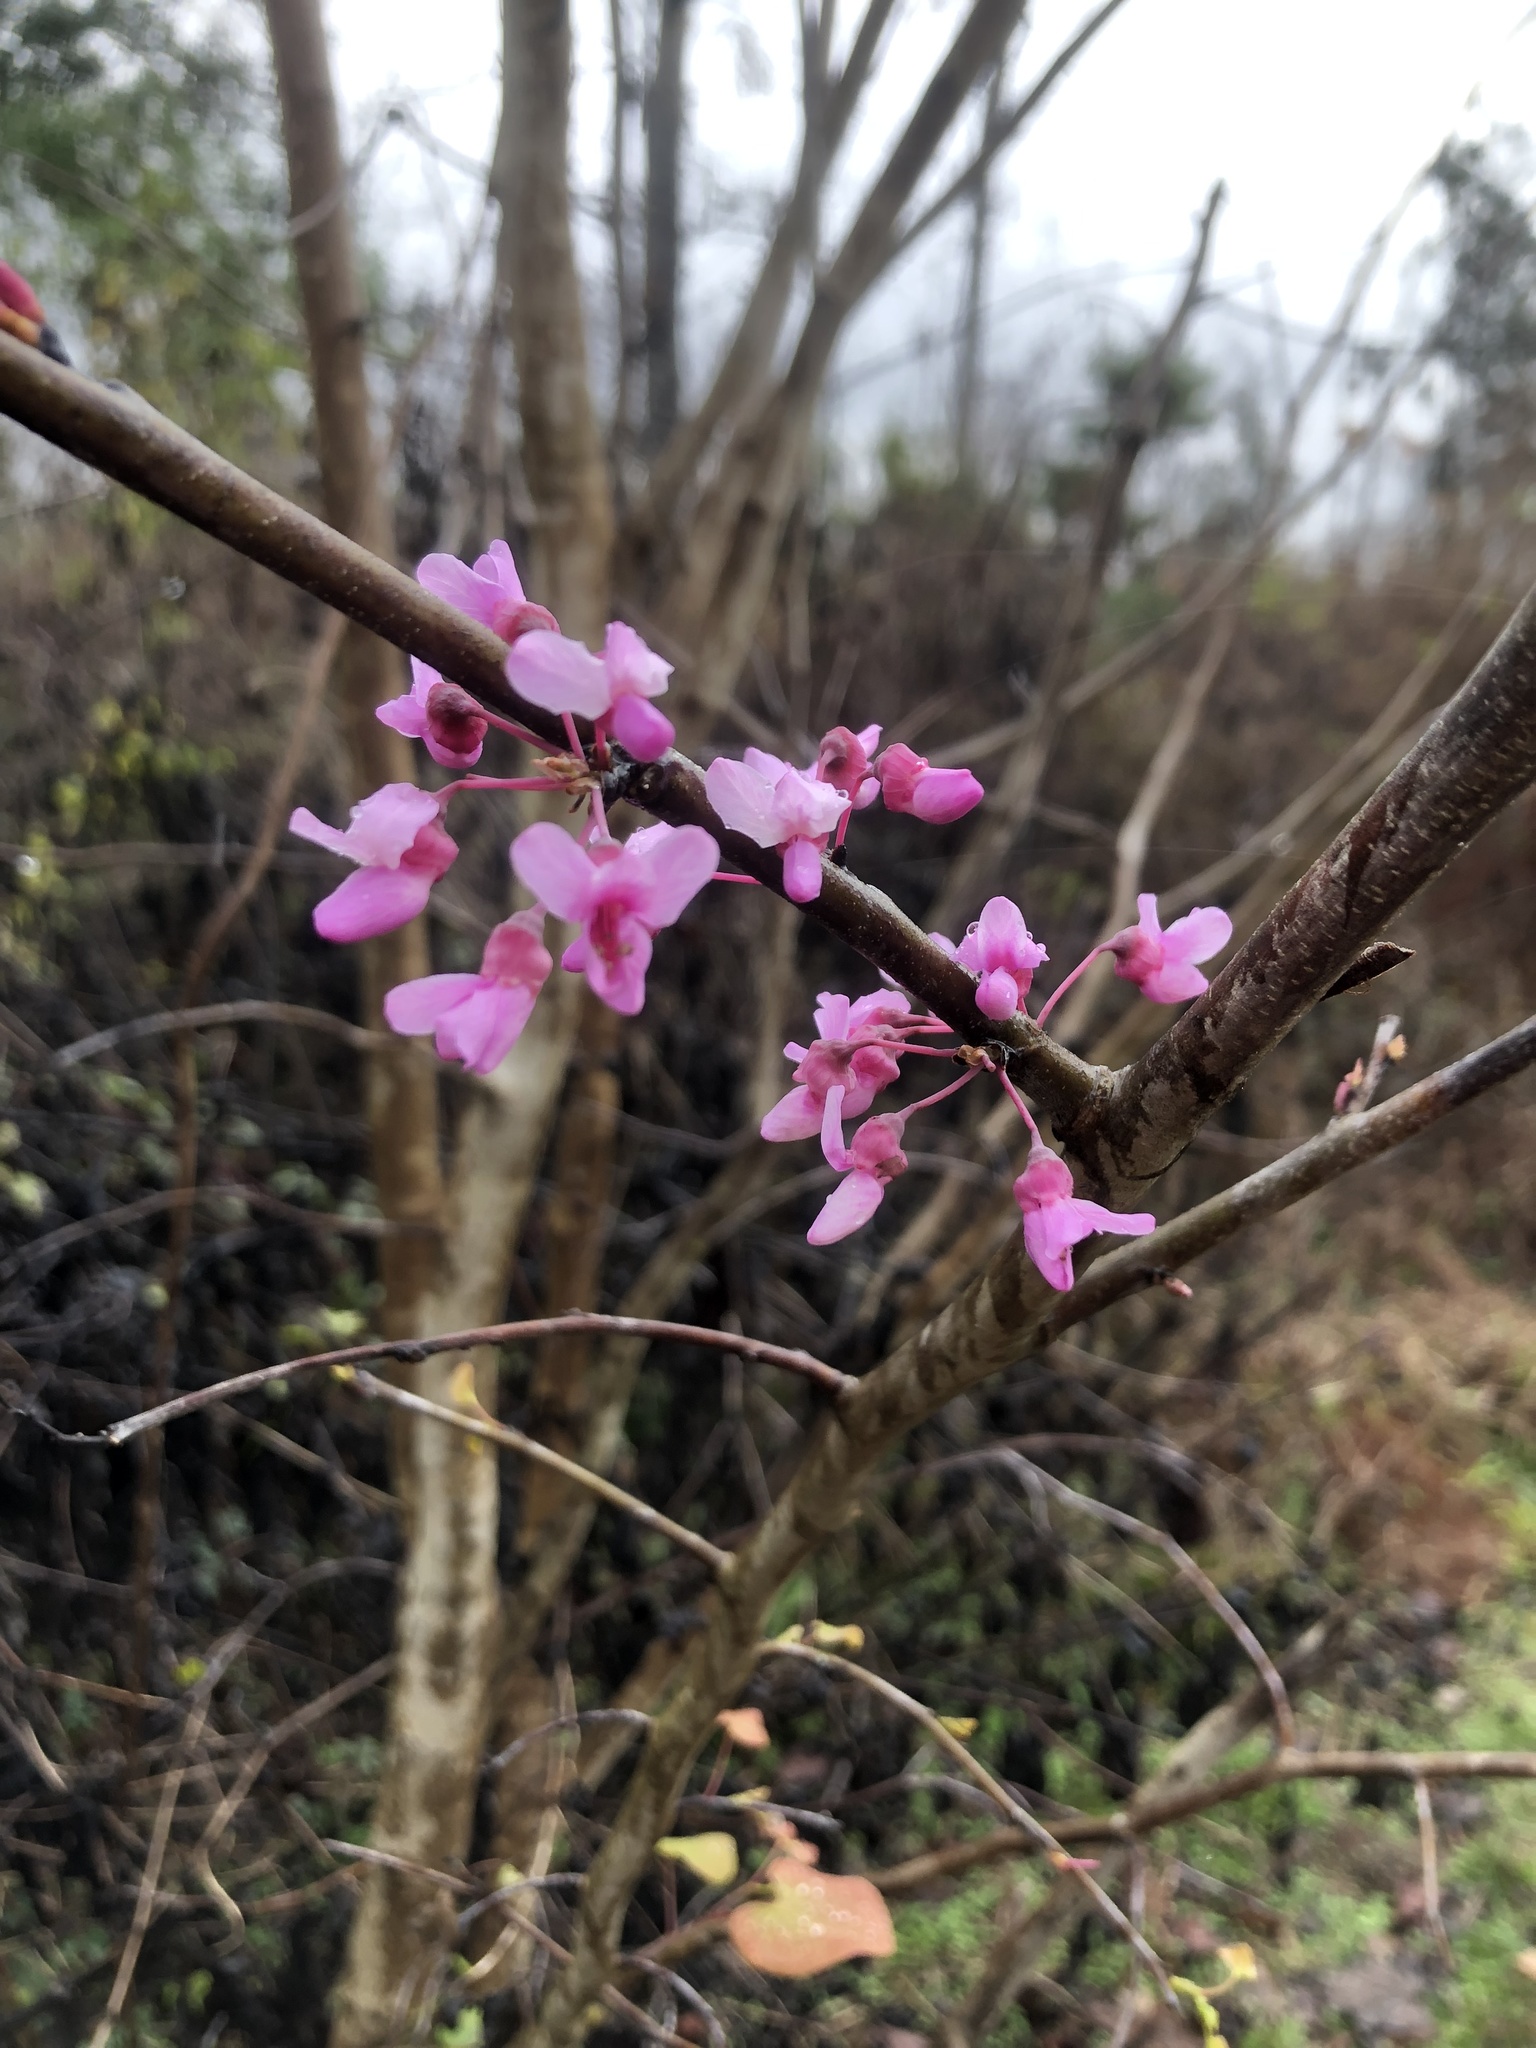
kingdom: Plantae
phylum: Tracheophyta
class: Magnoliopsida
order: Fabales
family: Fabaceae
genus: Cercis
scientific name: Cercis canadensis
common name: Eastern redbud
